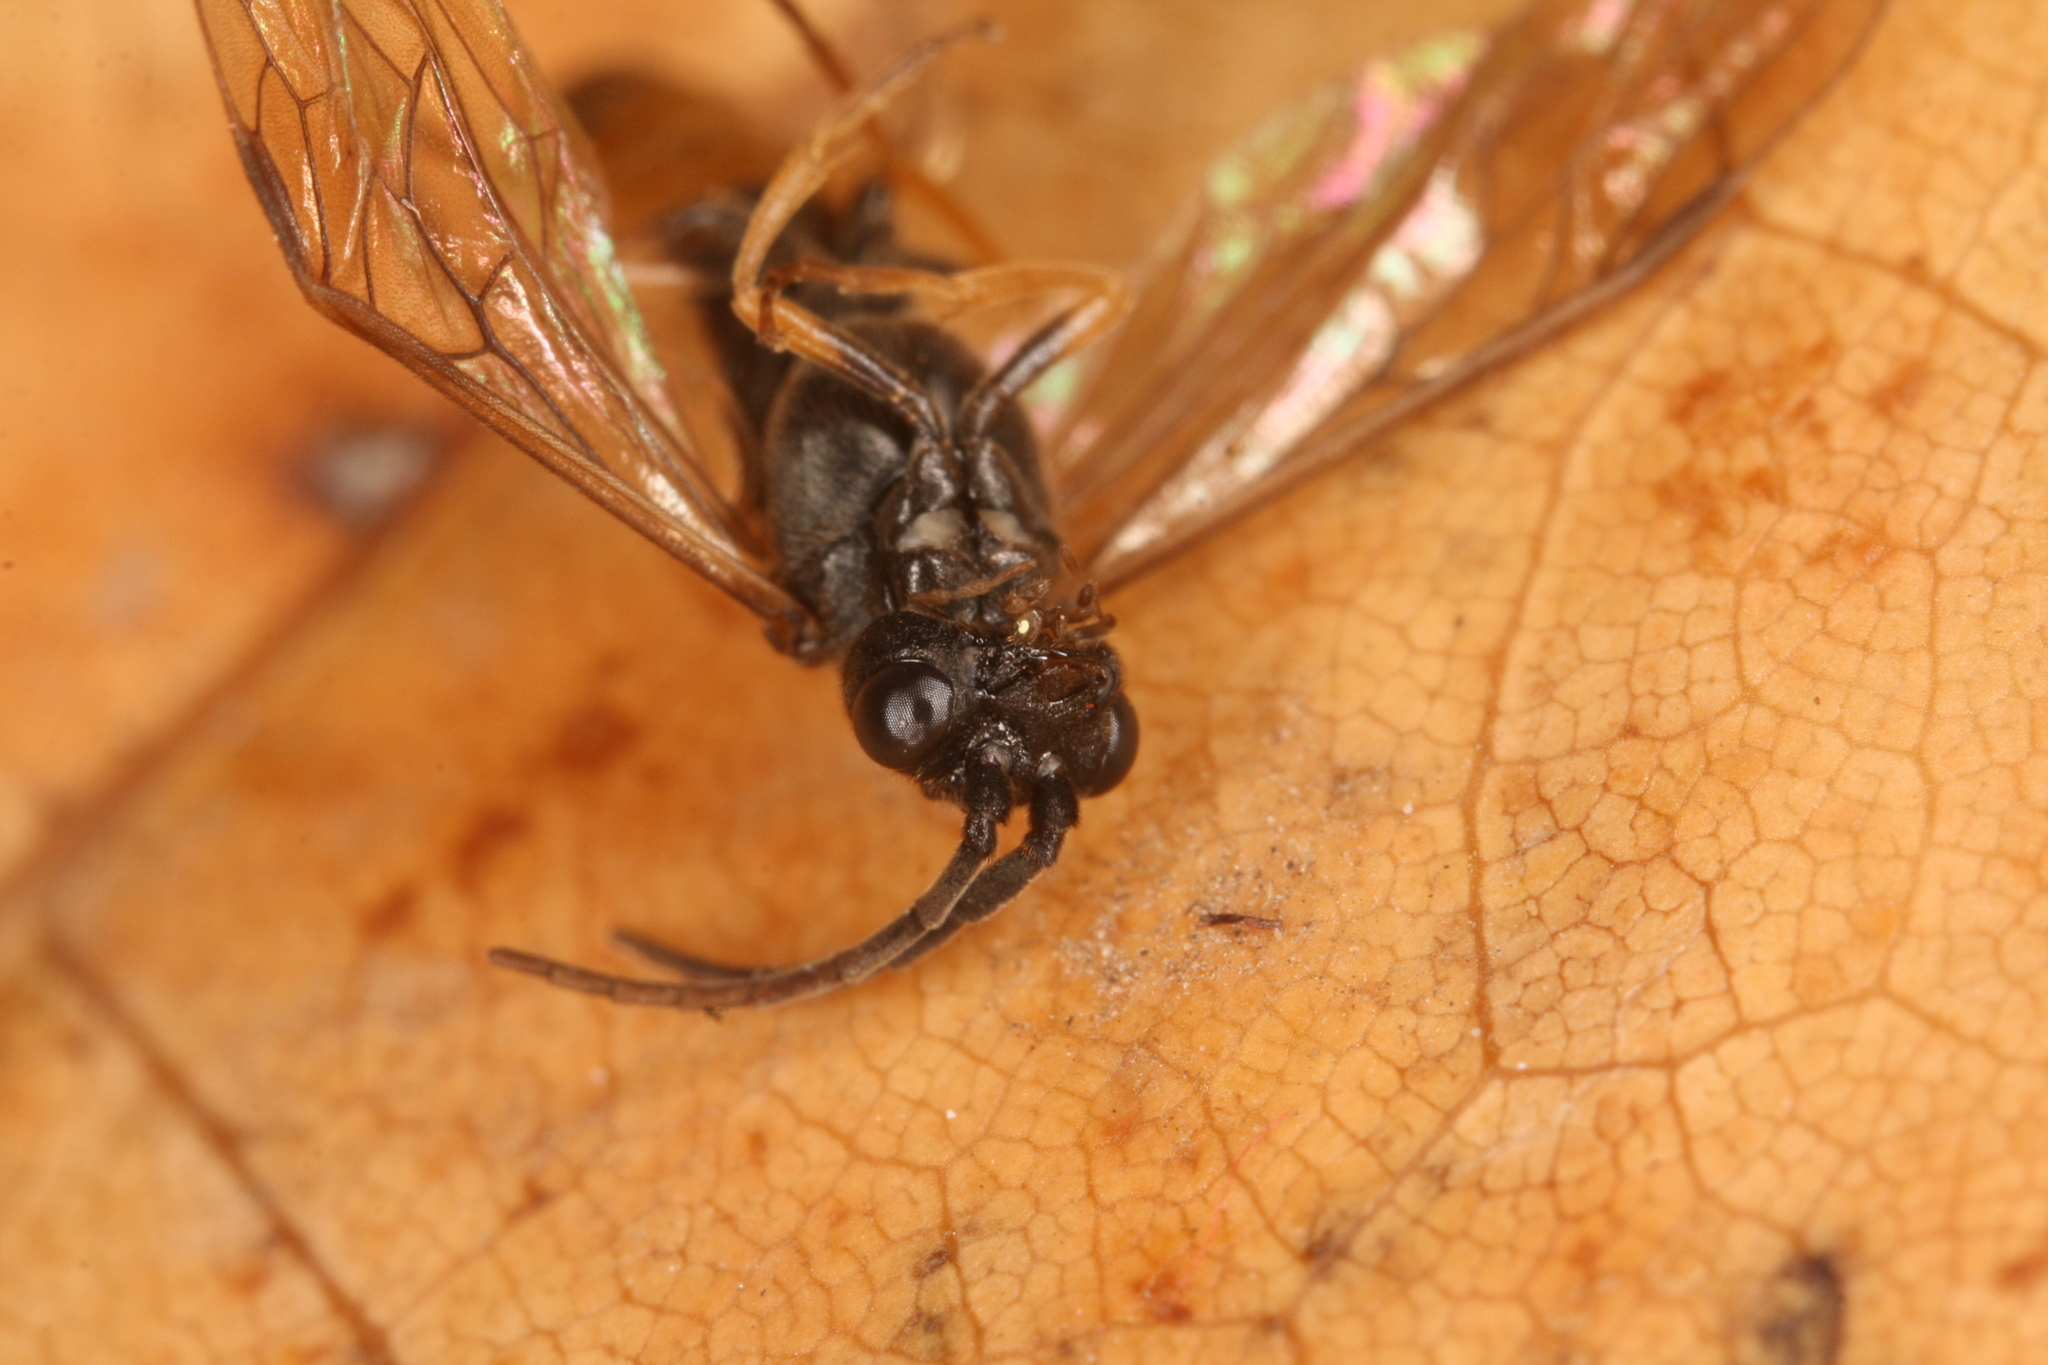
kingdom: Animalia
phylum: Arthropoda
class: Insecta
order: Hymenoptera
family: Tenthredinidae
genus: Allantus
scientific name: Allantus calceatus
